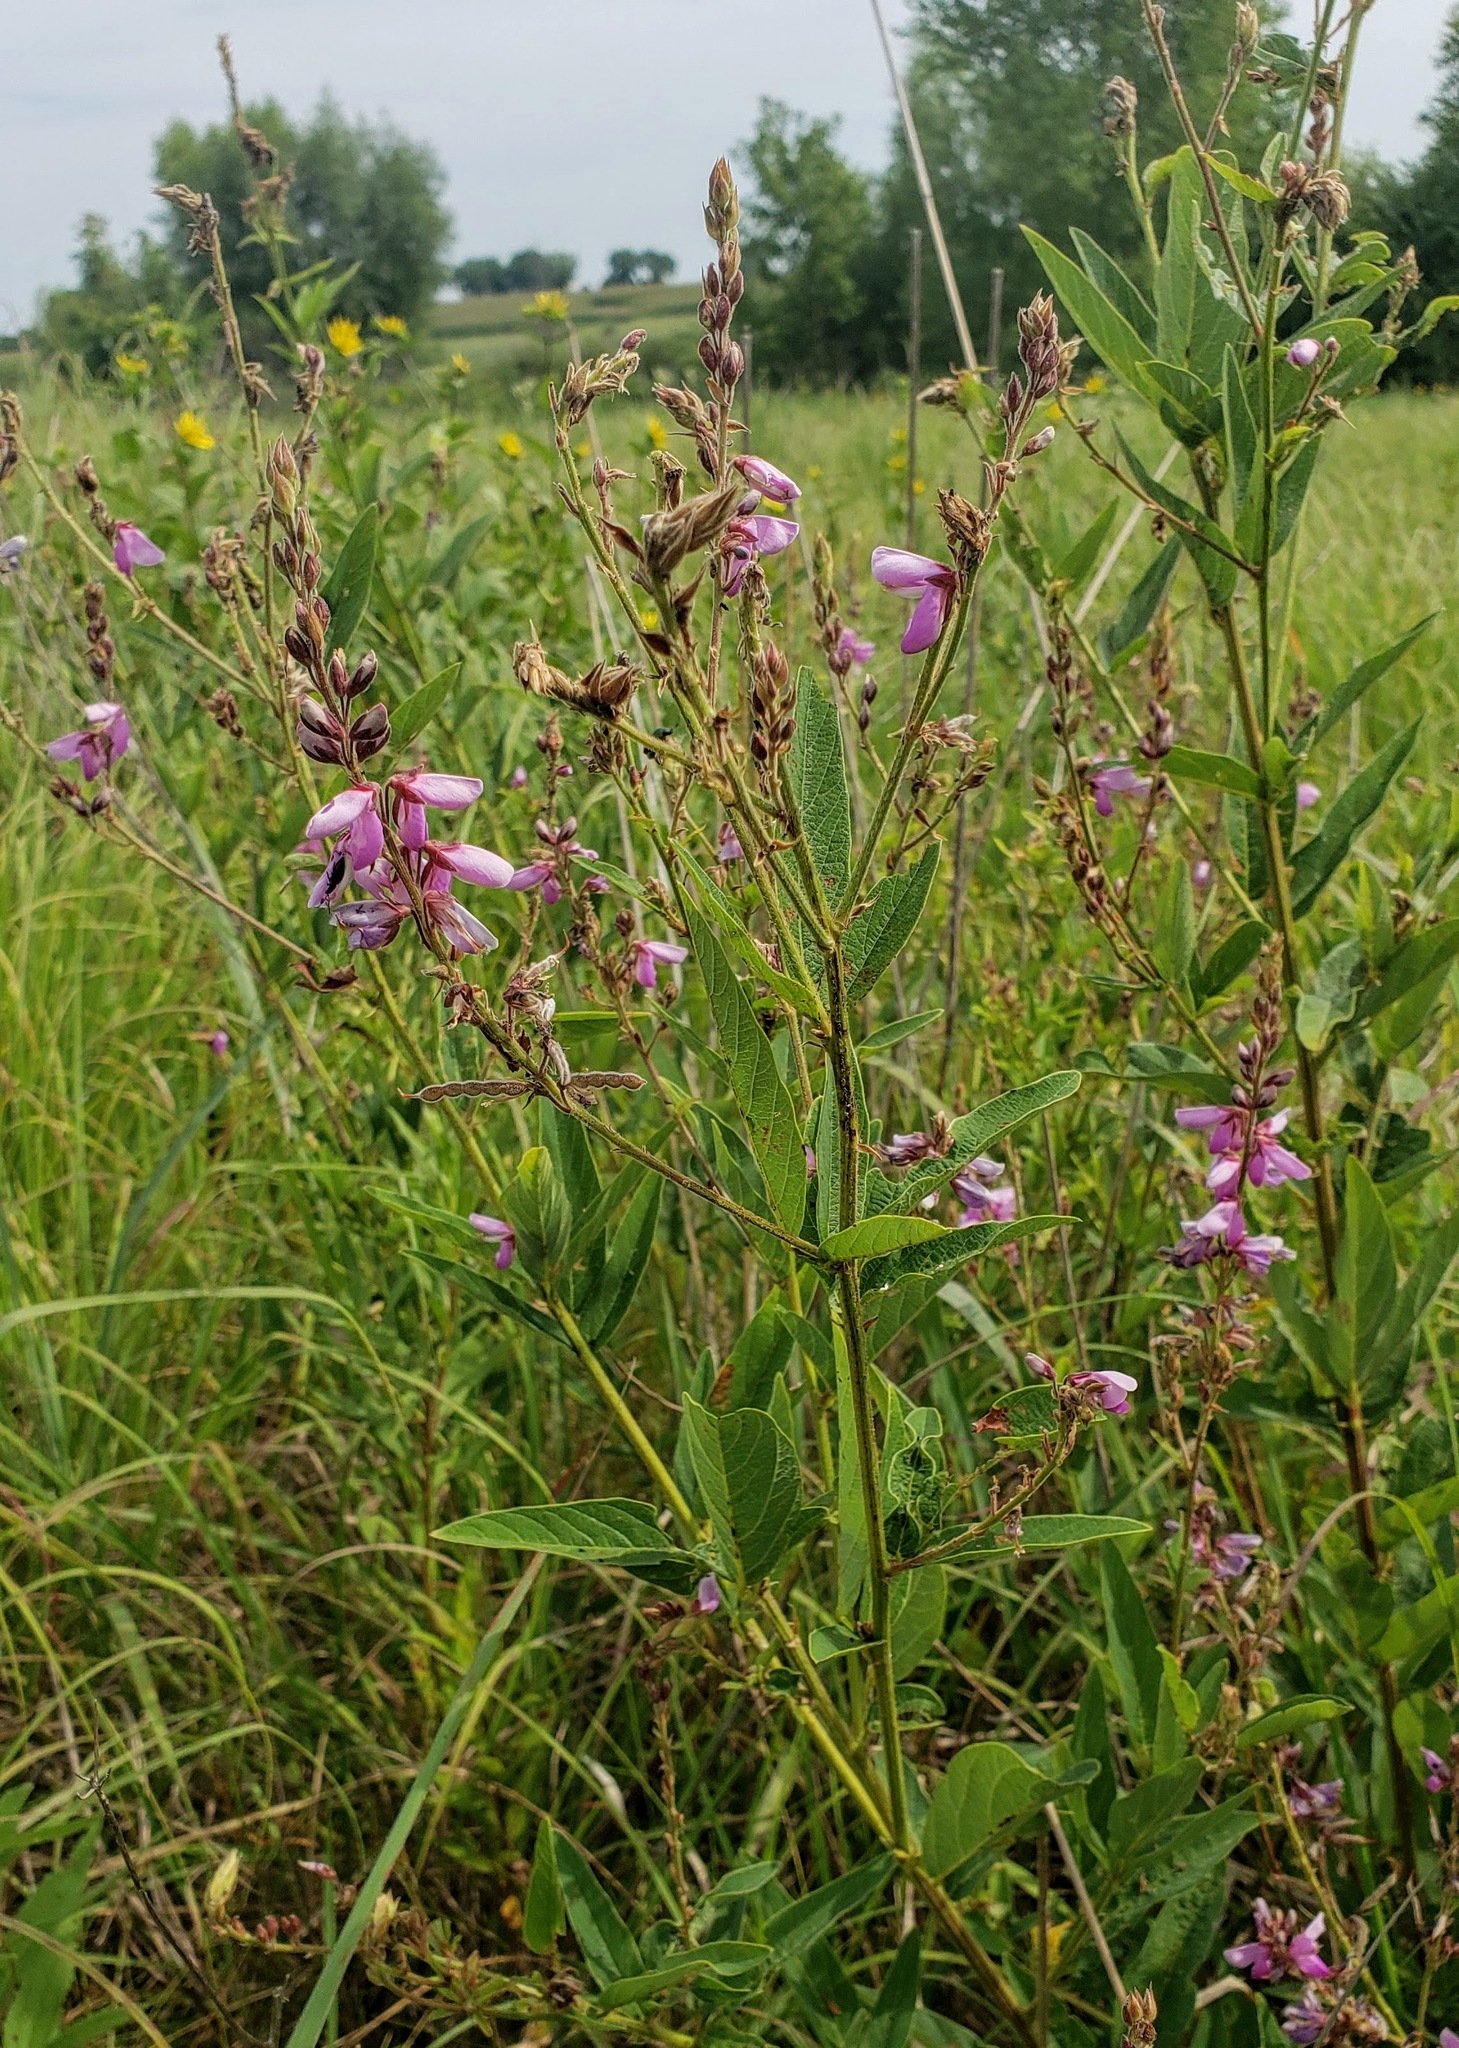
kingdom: Plantae
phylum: Tracheophyta
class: Magnoliopsida
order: Fabales
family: Fabaceae
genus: Desmodium
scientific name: Desmodium canadense
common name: Canada tick-trefoil
